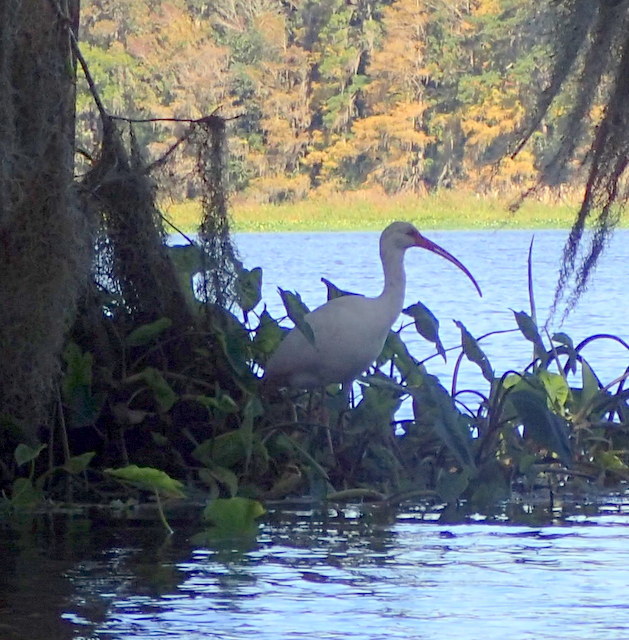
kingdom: Animalia
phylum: Chordata
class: Aves
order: Pelecaniformes
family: Threskiornithidae
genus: Eudocimus
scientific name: Eudocimus albus
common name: White ibis
